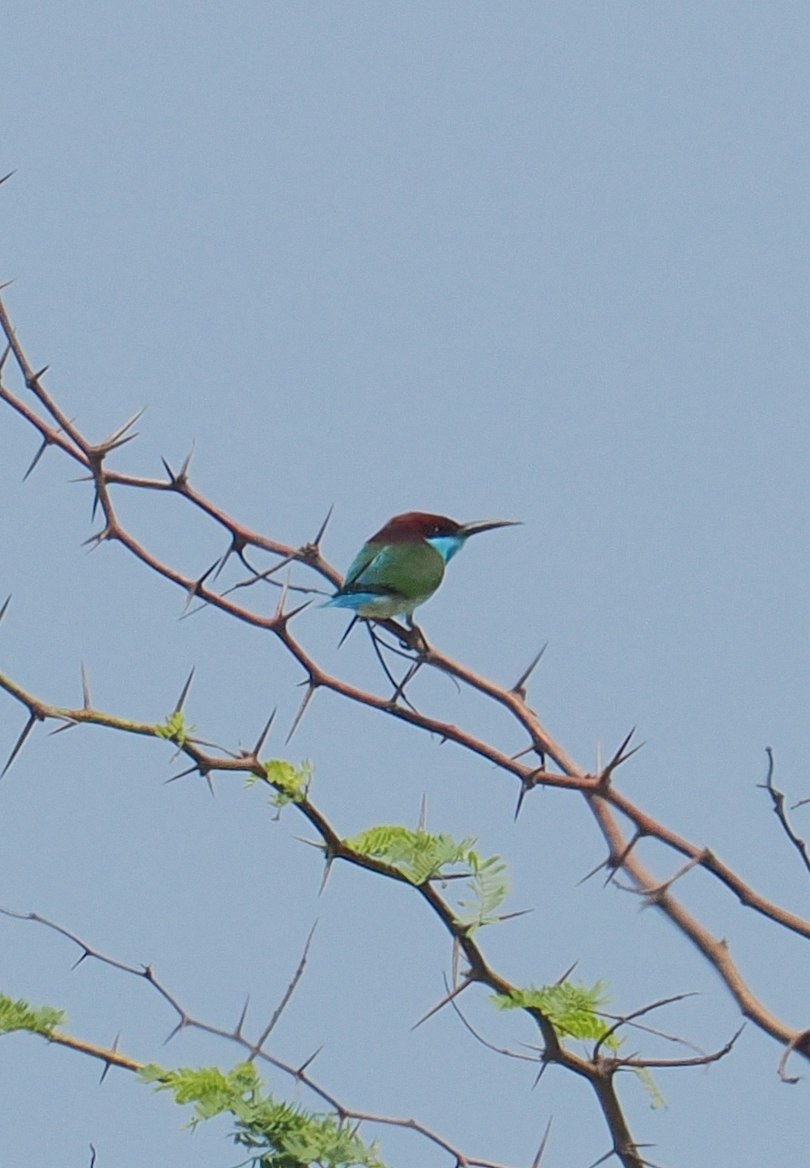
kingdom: Animalia
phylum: Chordata
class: Aves
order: Coraciiformes
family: Meropidae
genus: Merops
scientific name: Merops viridis
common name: Blue-throated bee-eater
